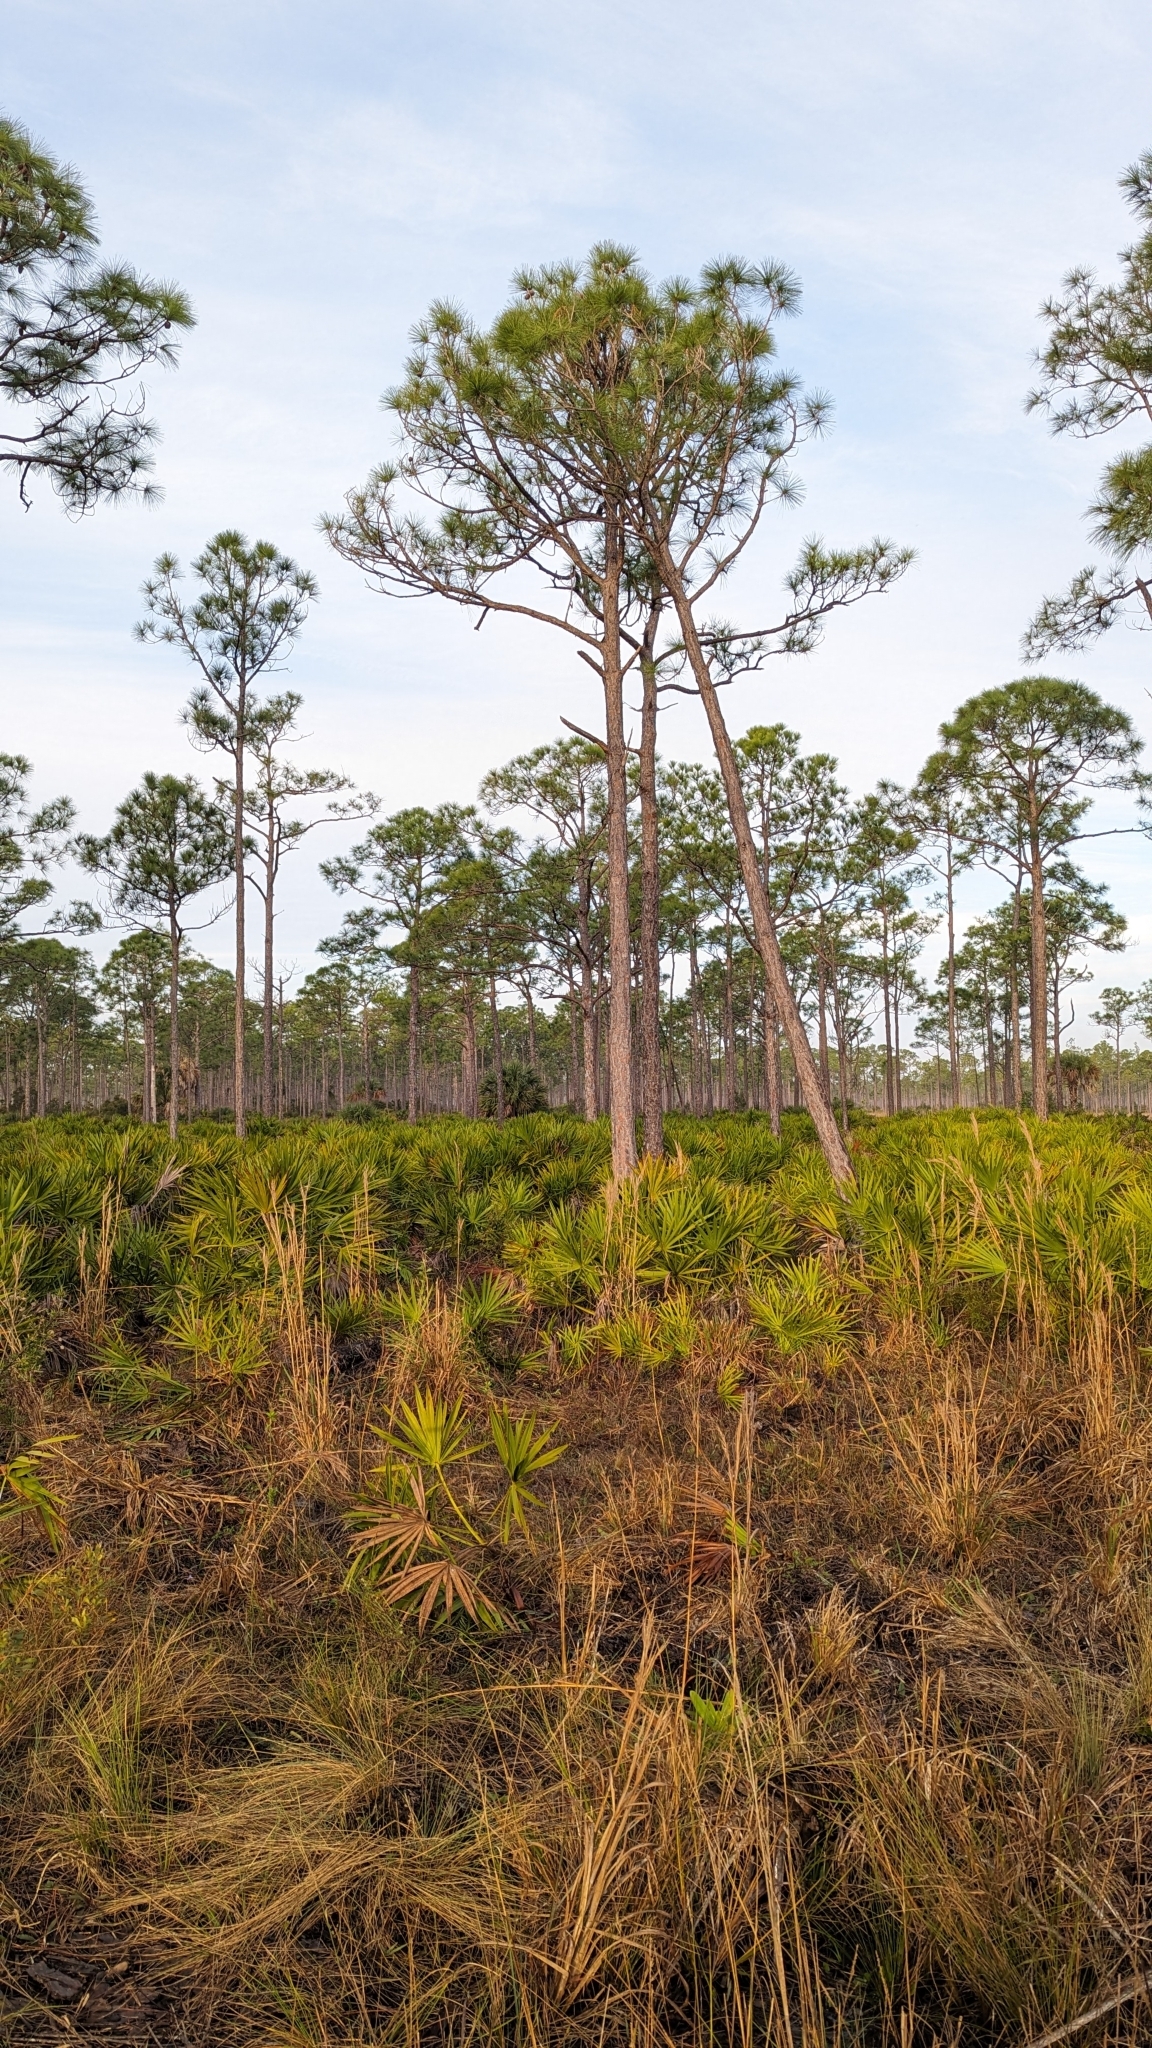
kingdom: Plantae
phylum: Tracheophyta
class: Pinopsida
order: Pinales
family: Pinaceae
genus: Pinus
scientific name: Pinus elliottii
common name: Slash pine
